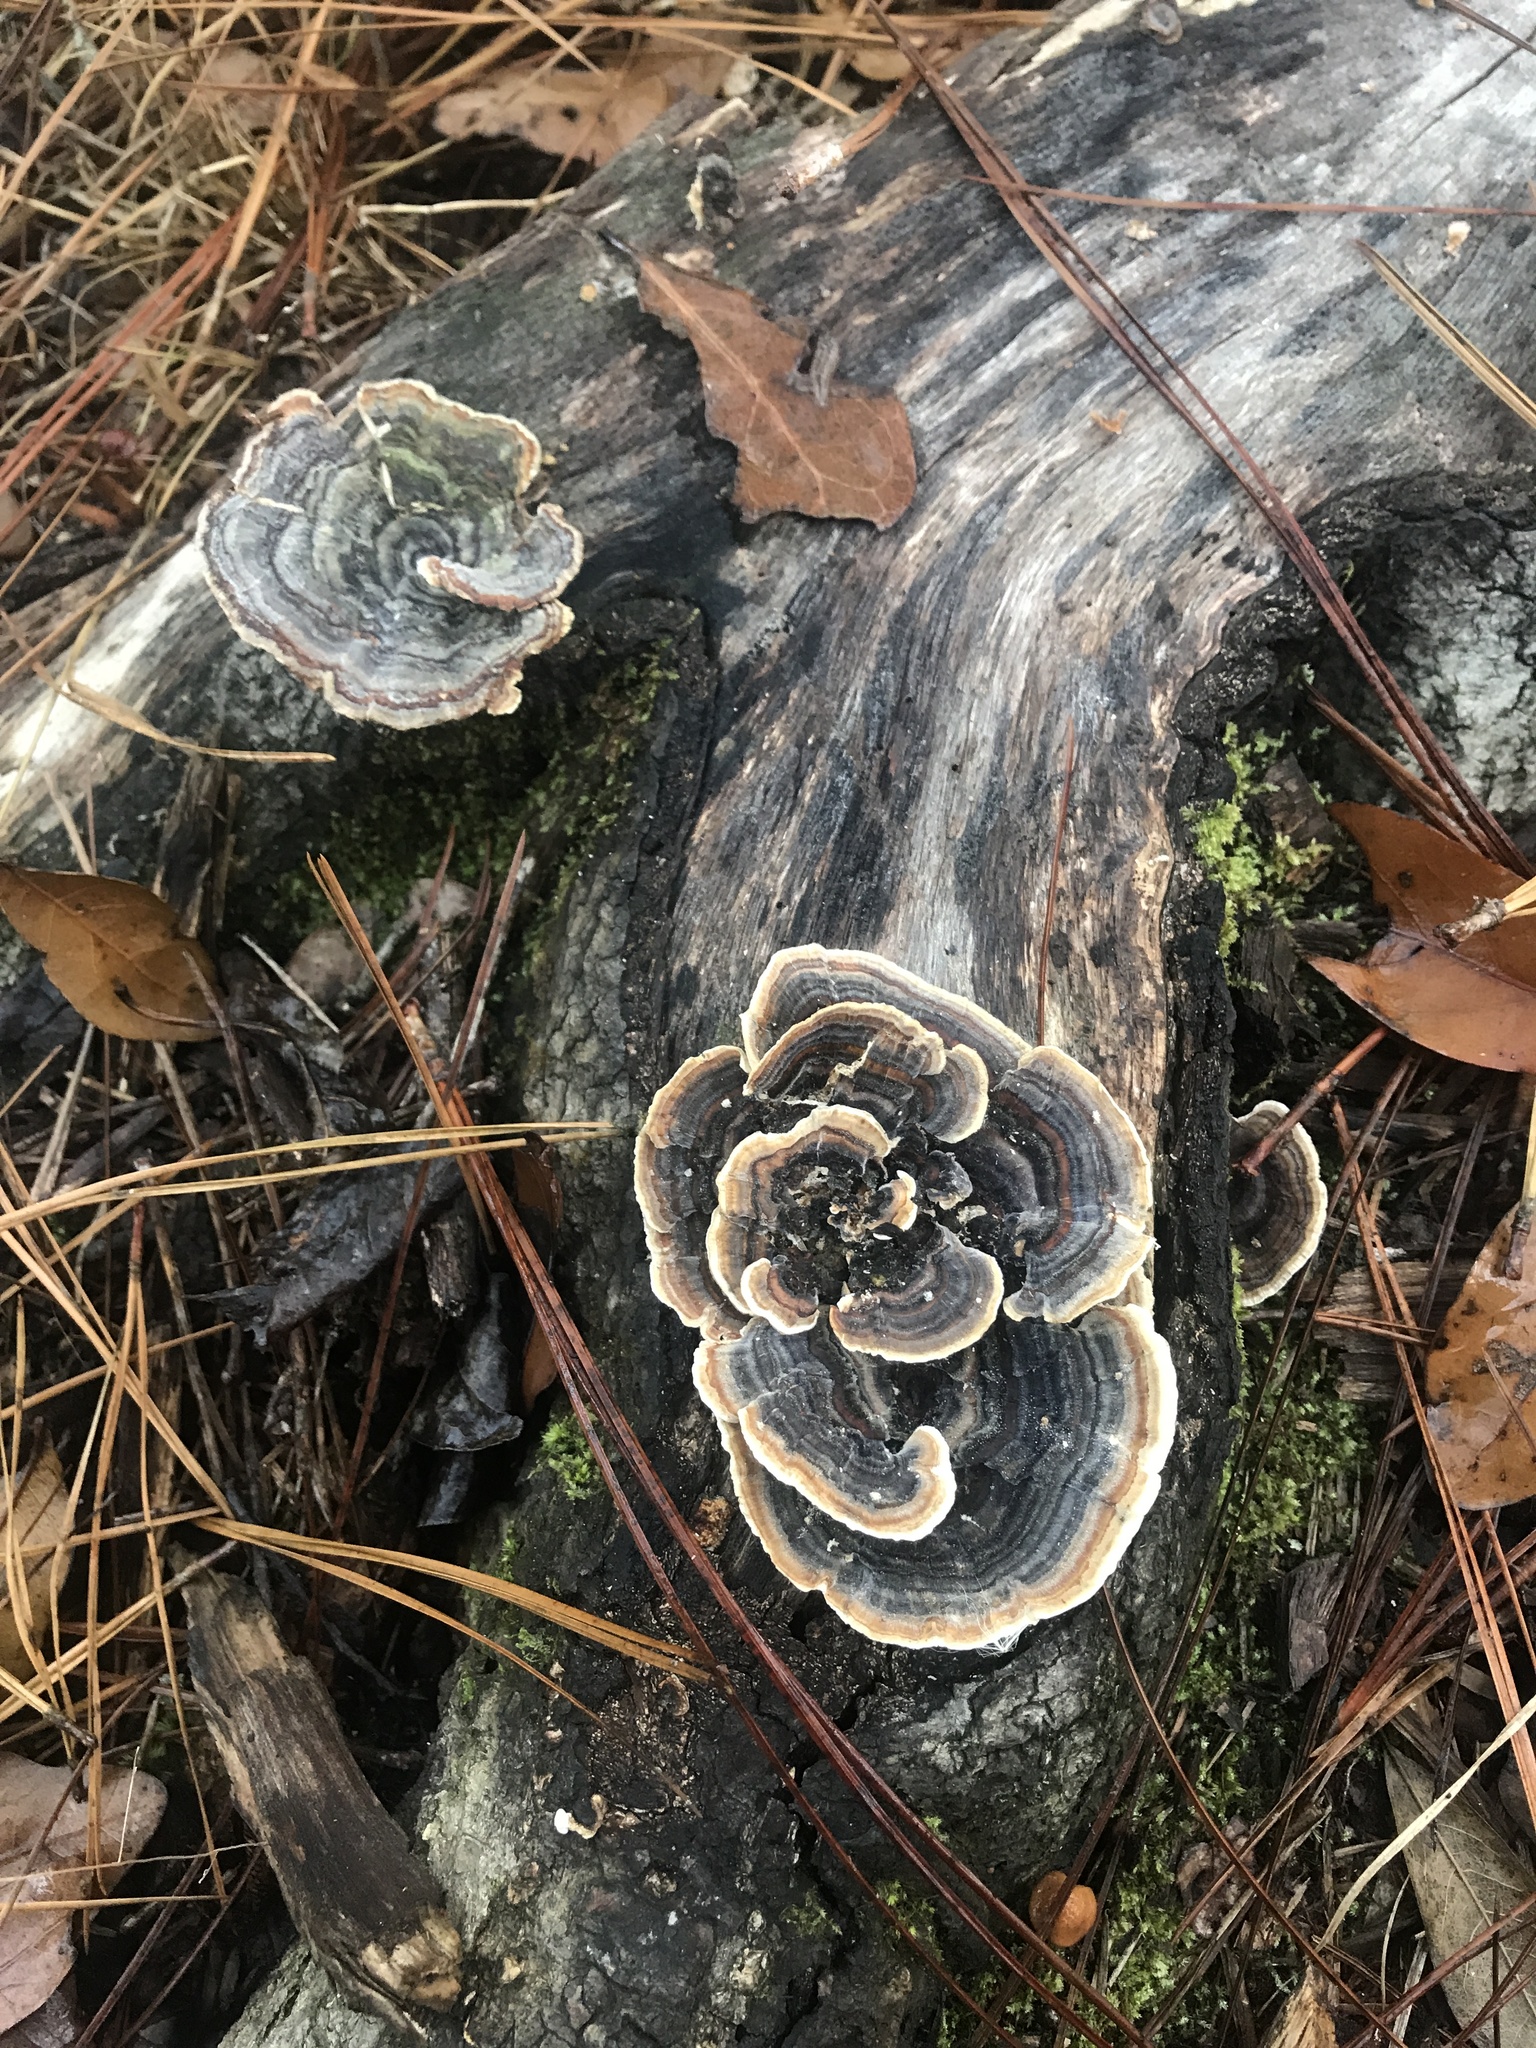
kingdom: Fungi
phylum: Basidiomycota
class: Agaricomycetes
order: Polyporales
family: Polyporaceae
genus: Trametes
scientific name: Trametes versicolor
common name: Turkeytail
